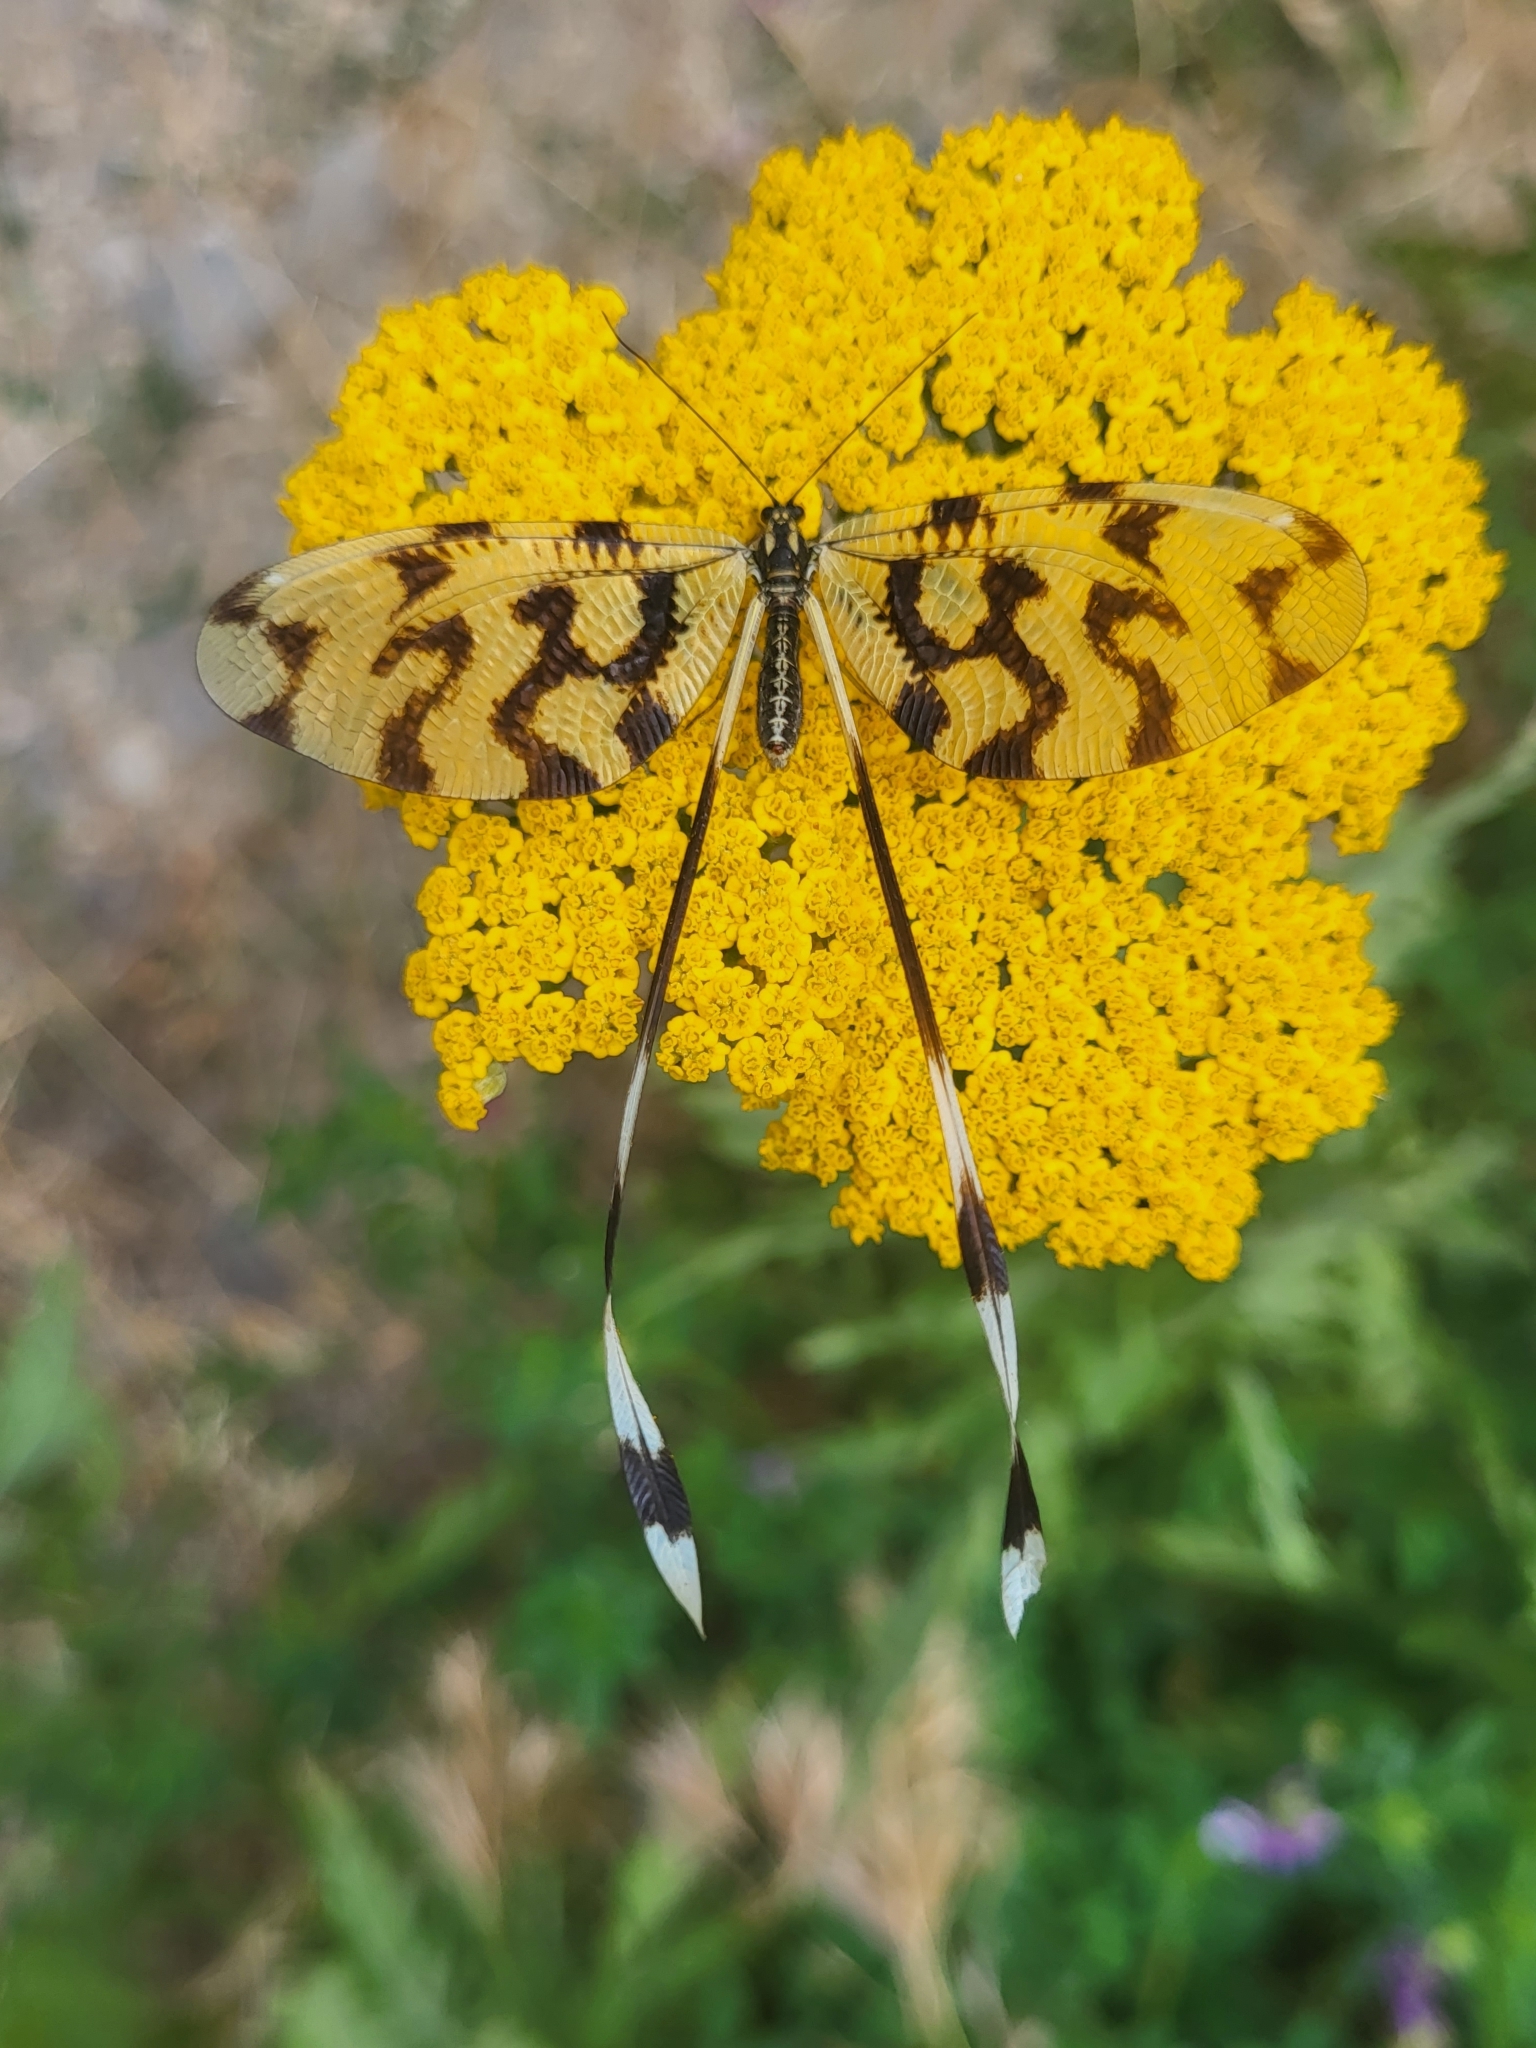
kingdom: Animalia
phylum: Arthropoda
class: Insecta
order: Neuroptera
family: Nemopteridae
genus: Nemoptera
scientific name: Nemoptera sinuata
